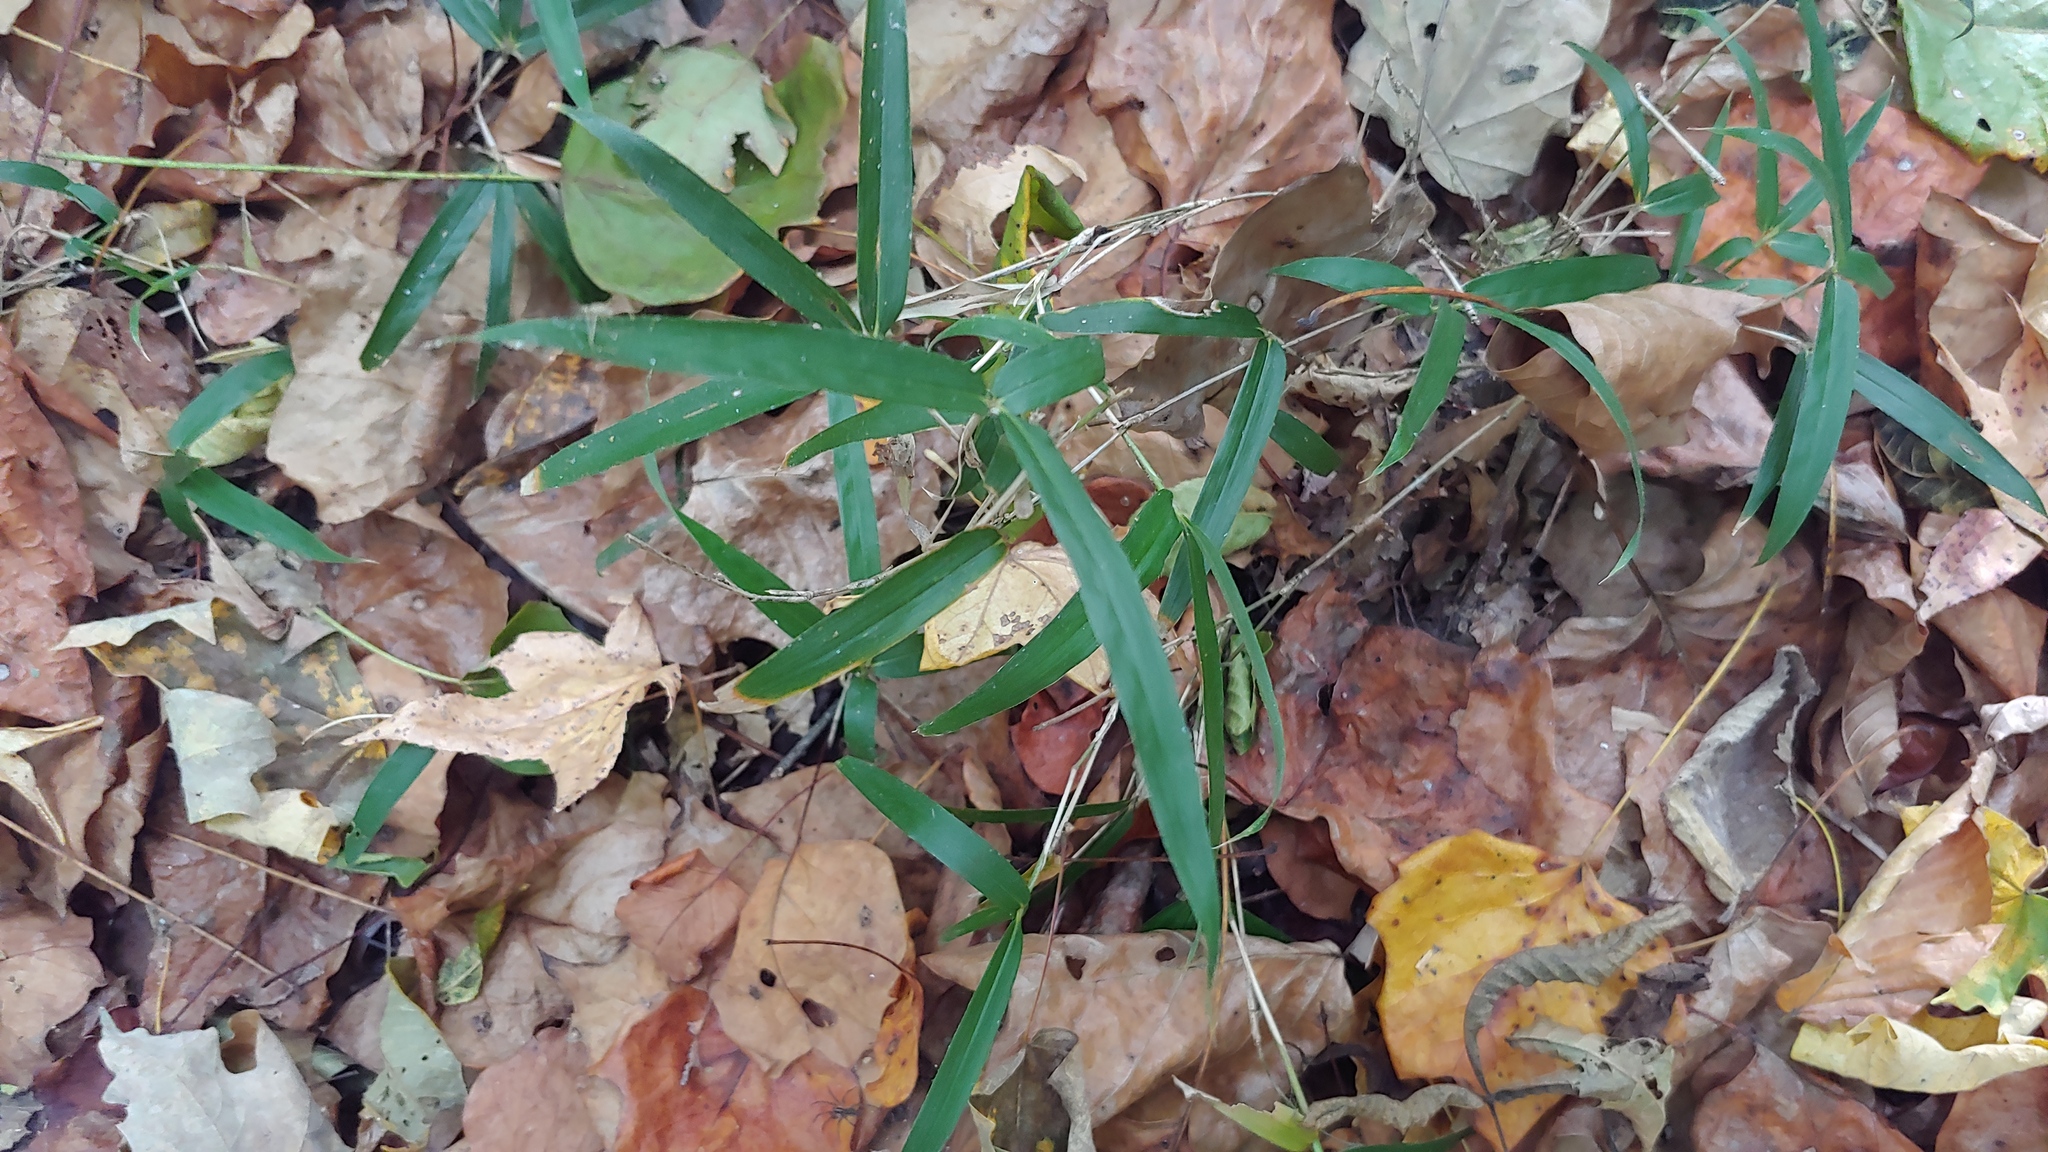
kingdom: Plantae
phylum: Tracheophyta
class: Liliopsida
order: Poales
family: Poaceae
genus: Arundinaria
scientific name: Arundinaria gigantea
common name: Giant cane
